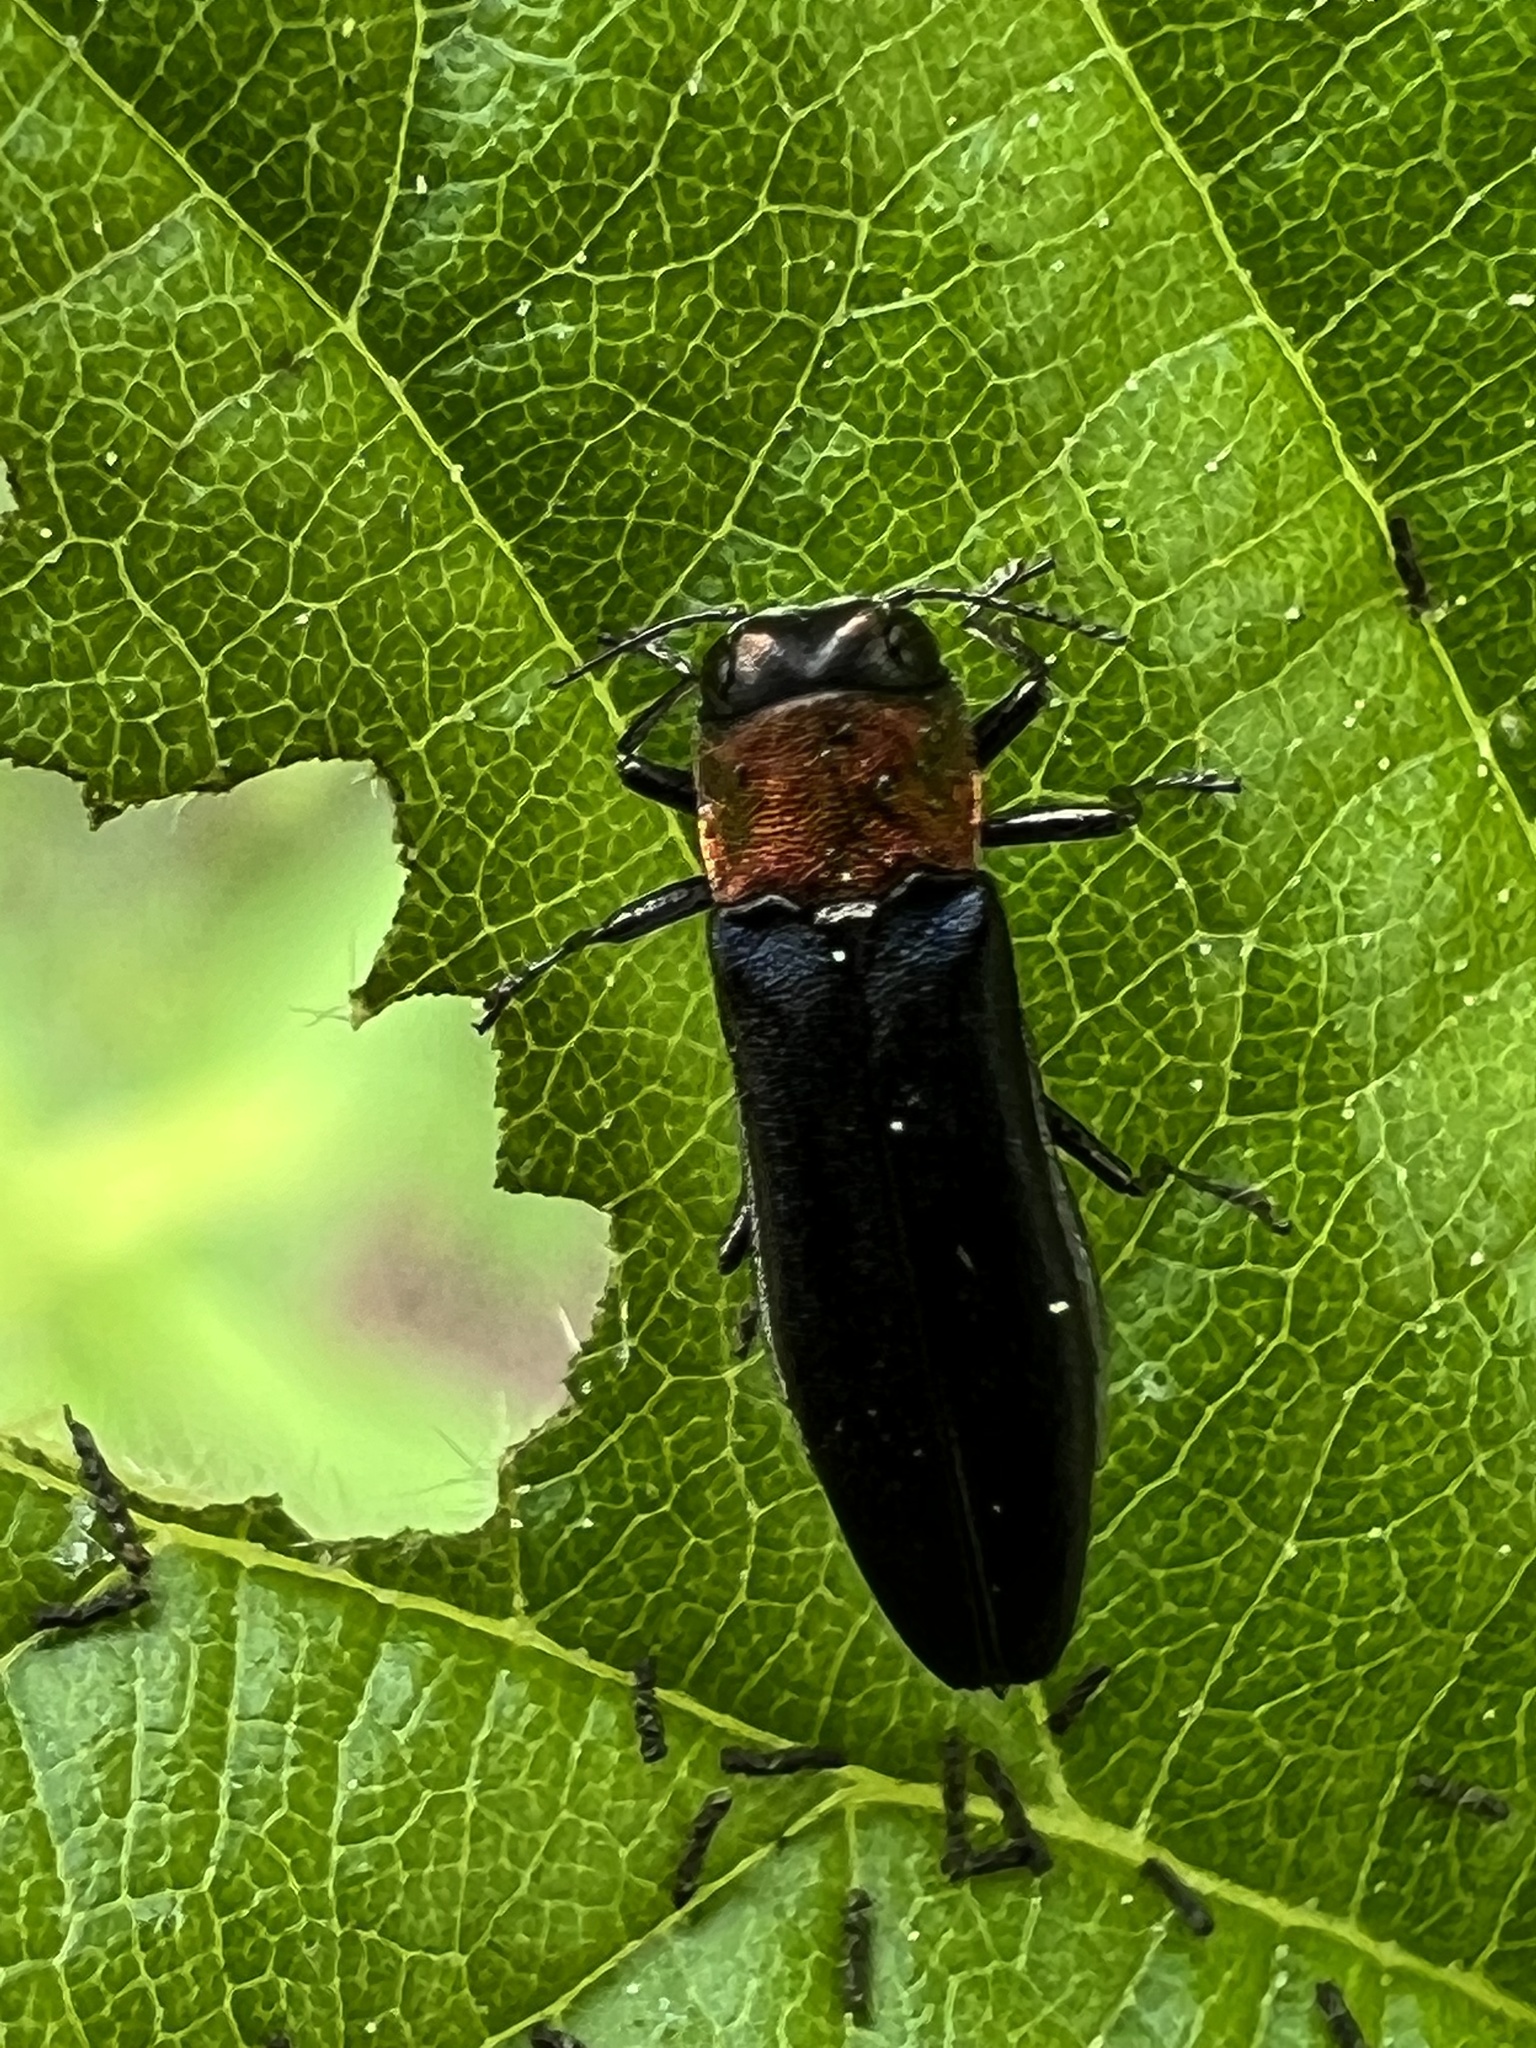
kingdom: Animalia
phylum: Arthropoda
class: Insecta
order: Coleoptera
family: Buprestidae
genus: Agrilus
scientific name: Agrilus ruficollis
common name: Red-necked cane borer beetle
